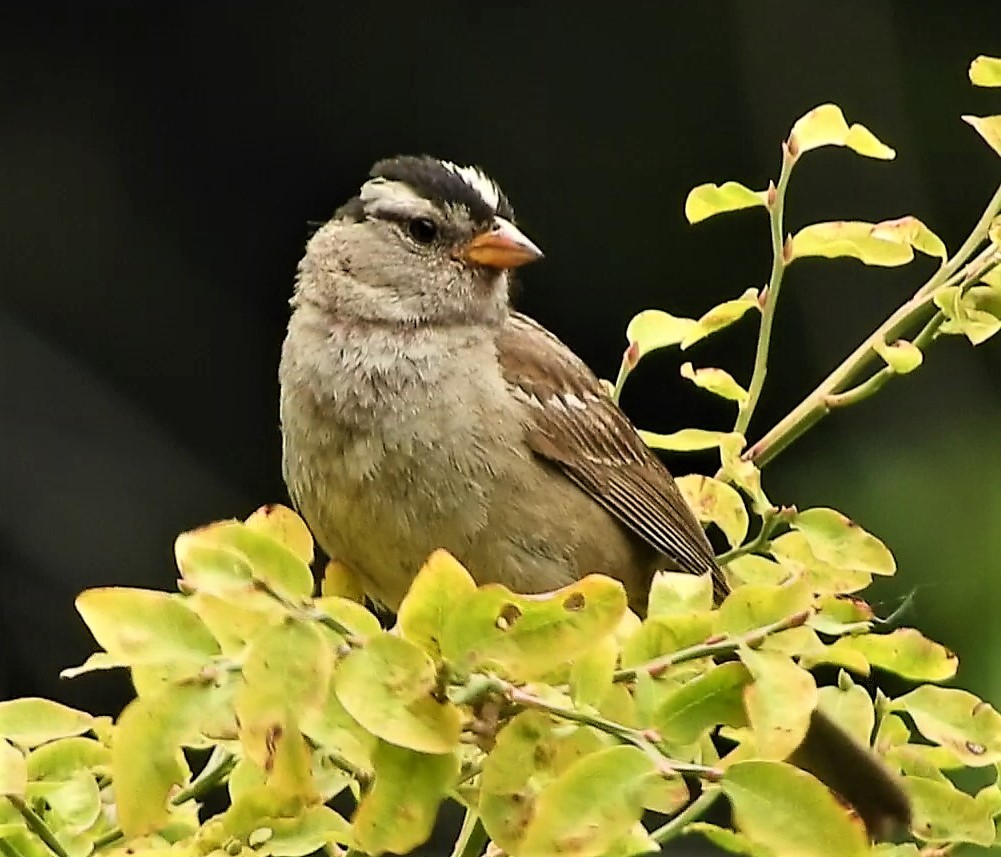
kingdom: Animalia
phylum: Chordata
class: Aves
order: Passeriformes
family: Passerellidae
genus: Zonotrichia
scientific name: Zonotrichia leucophrys
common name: White-crowned sparrow
